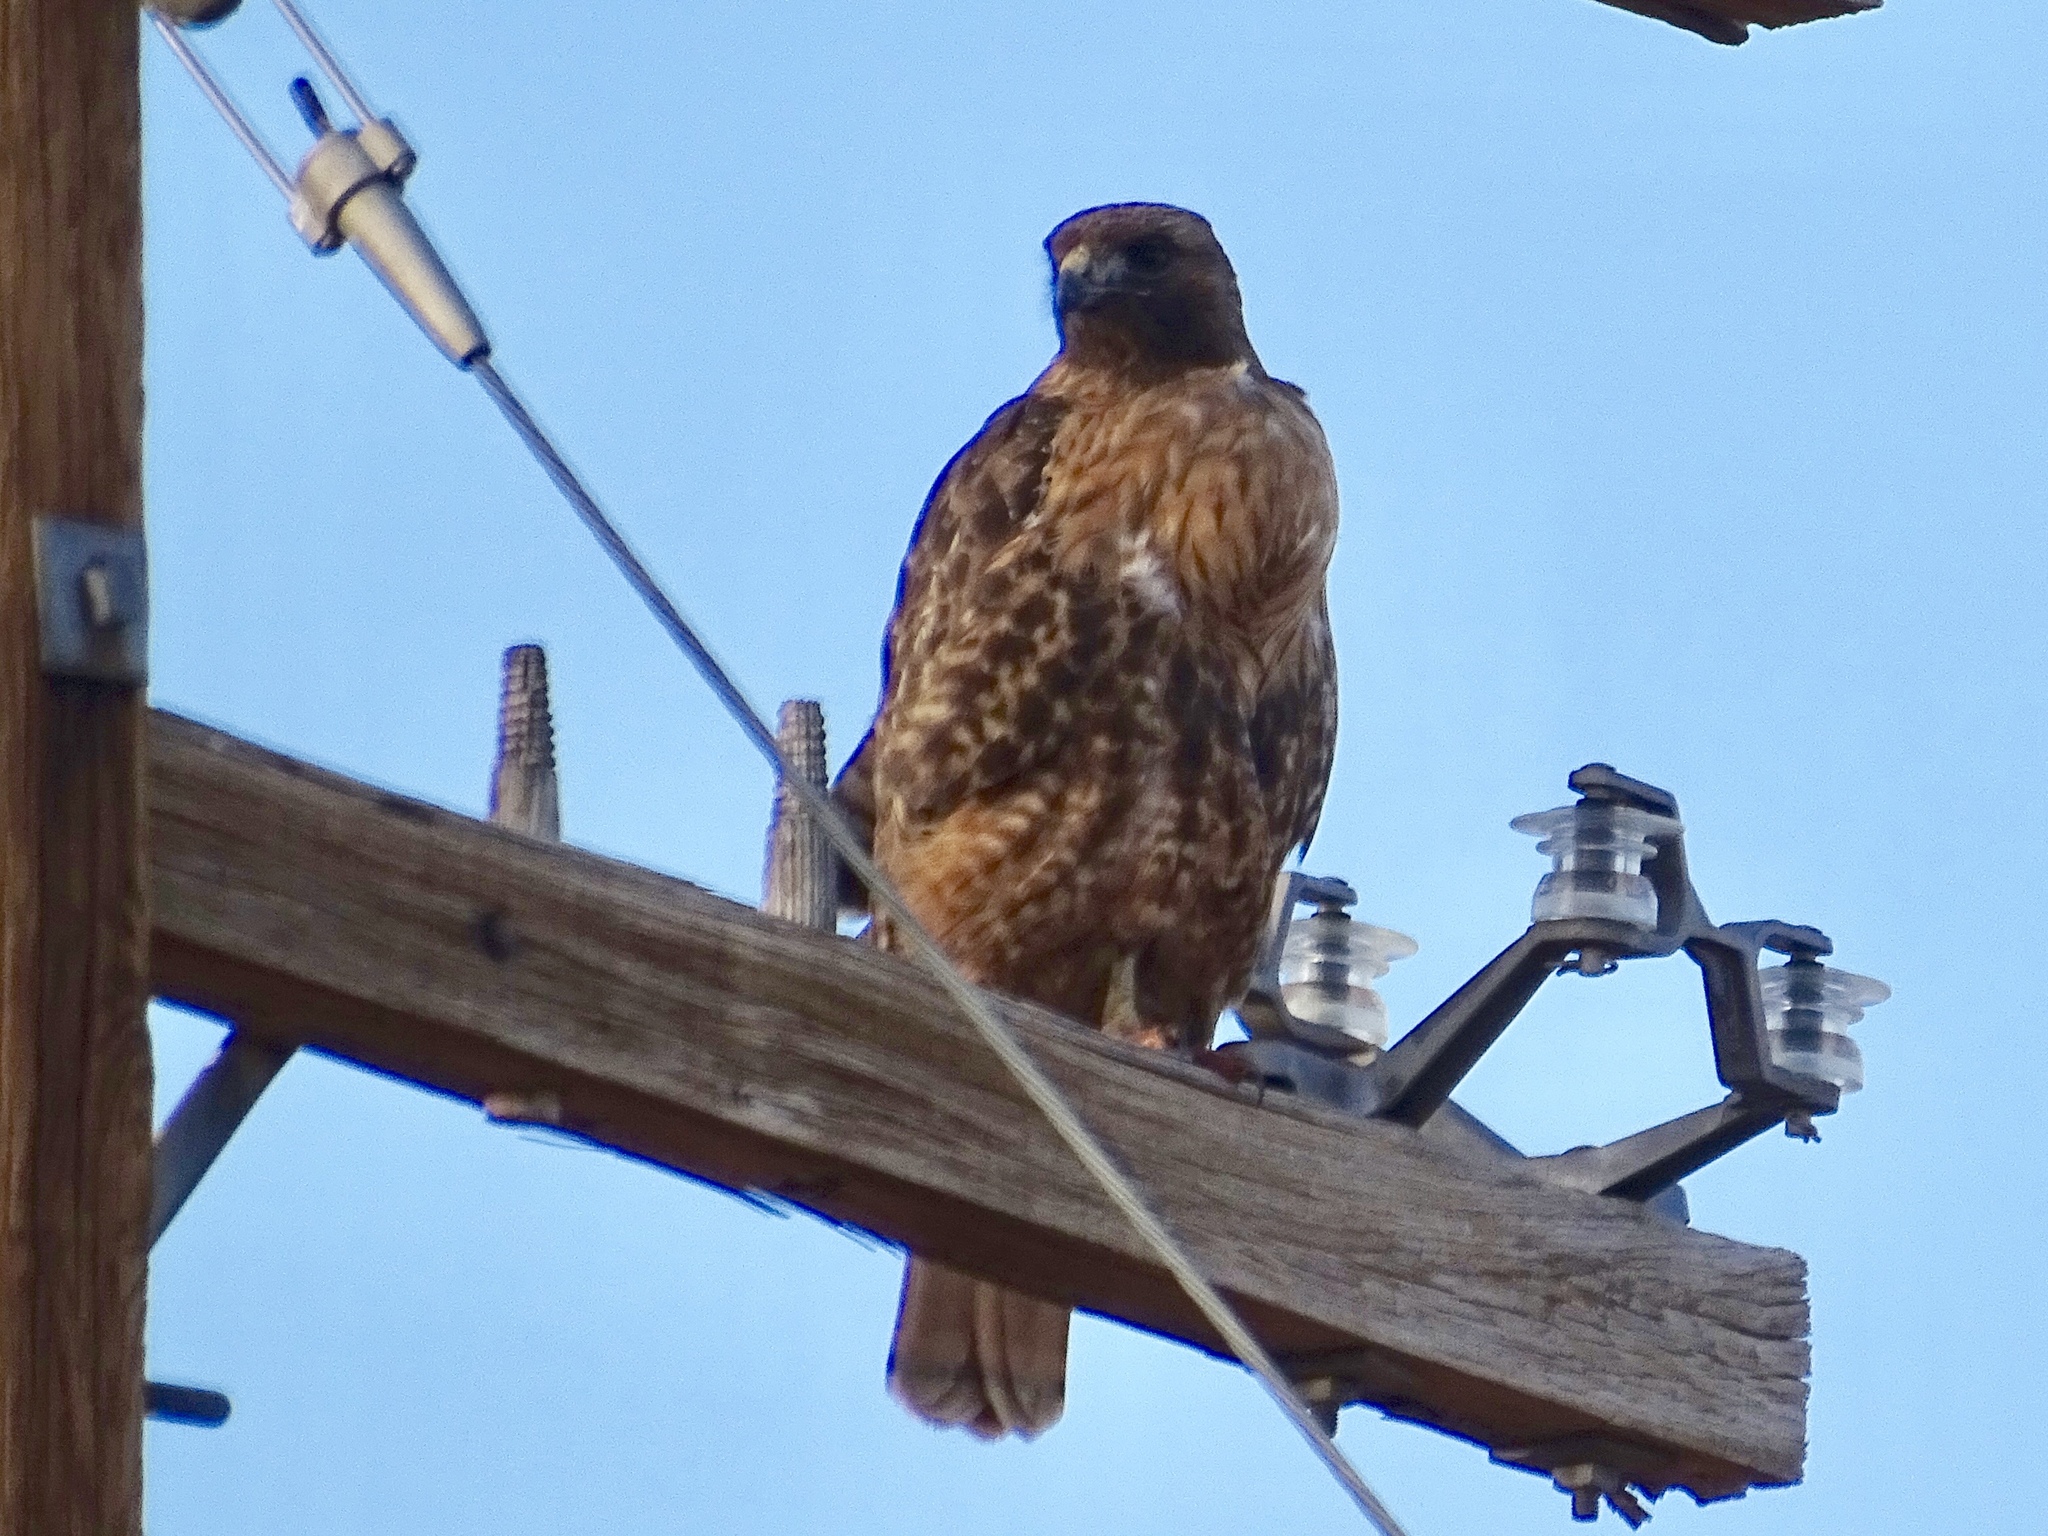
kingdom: Animalia
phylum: Chordata
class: Aves
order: Accipitriformes
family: Accipitridae
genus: Buteo
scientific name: Buteo jamaicensis
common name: Red-tailed hawk
